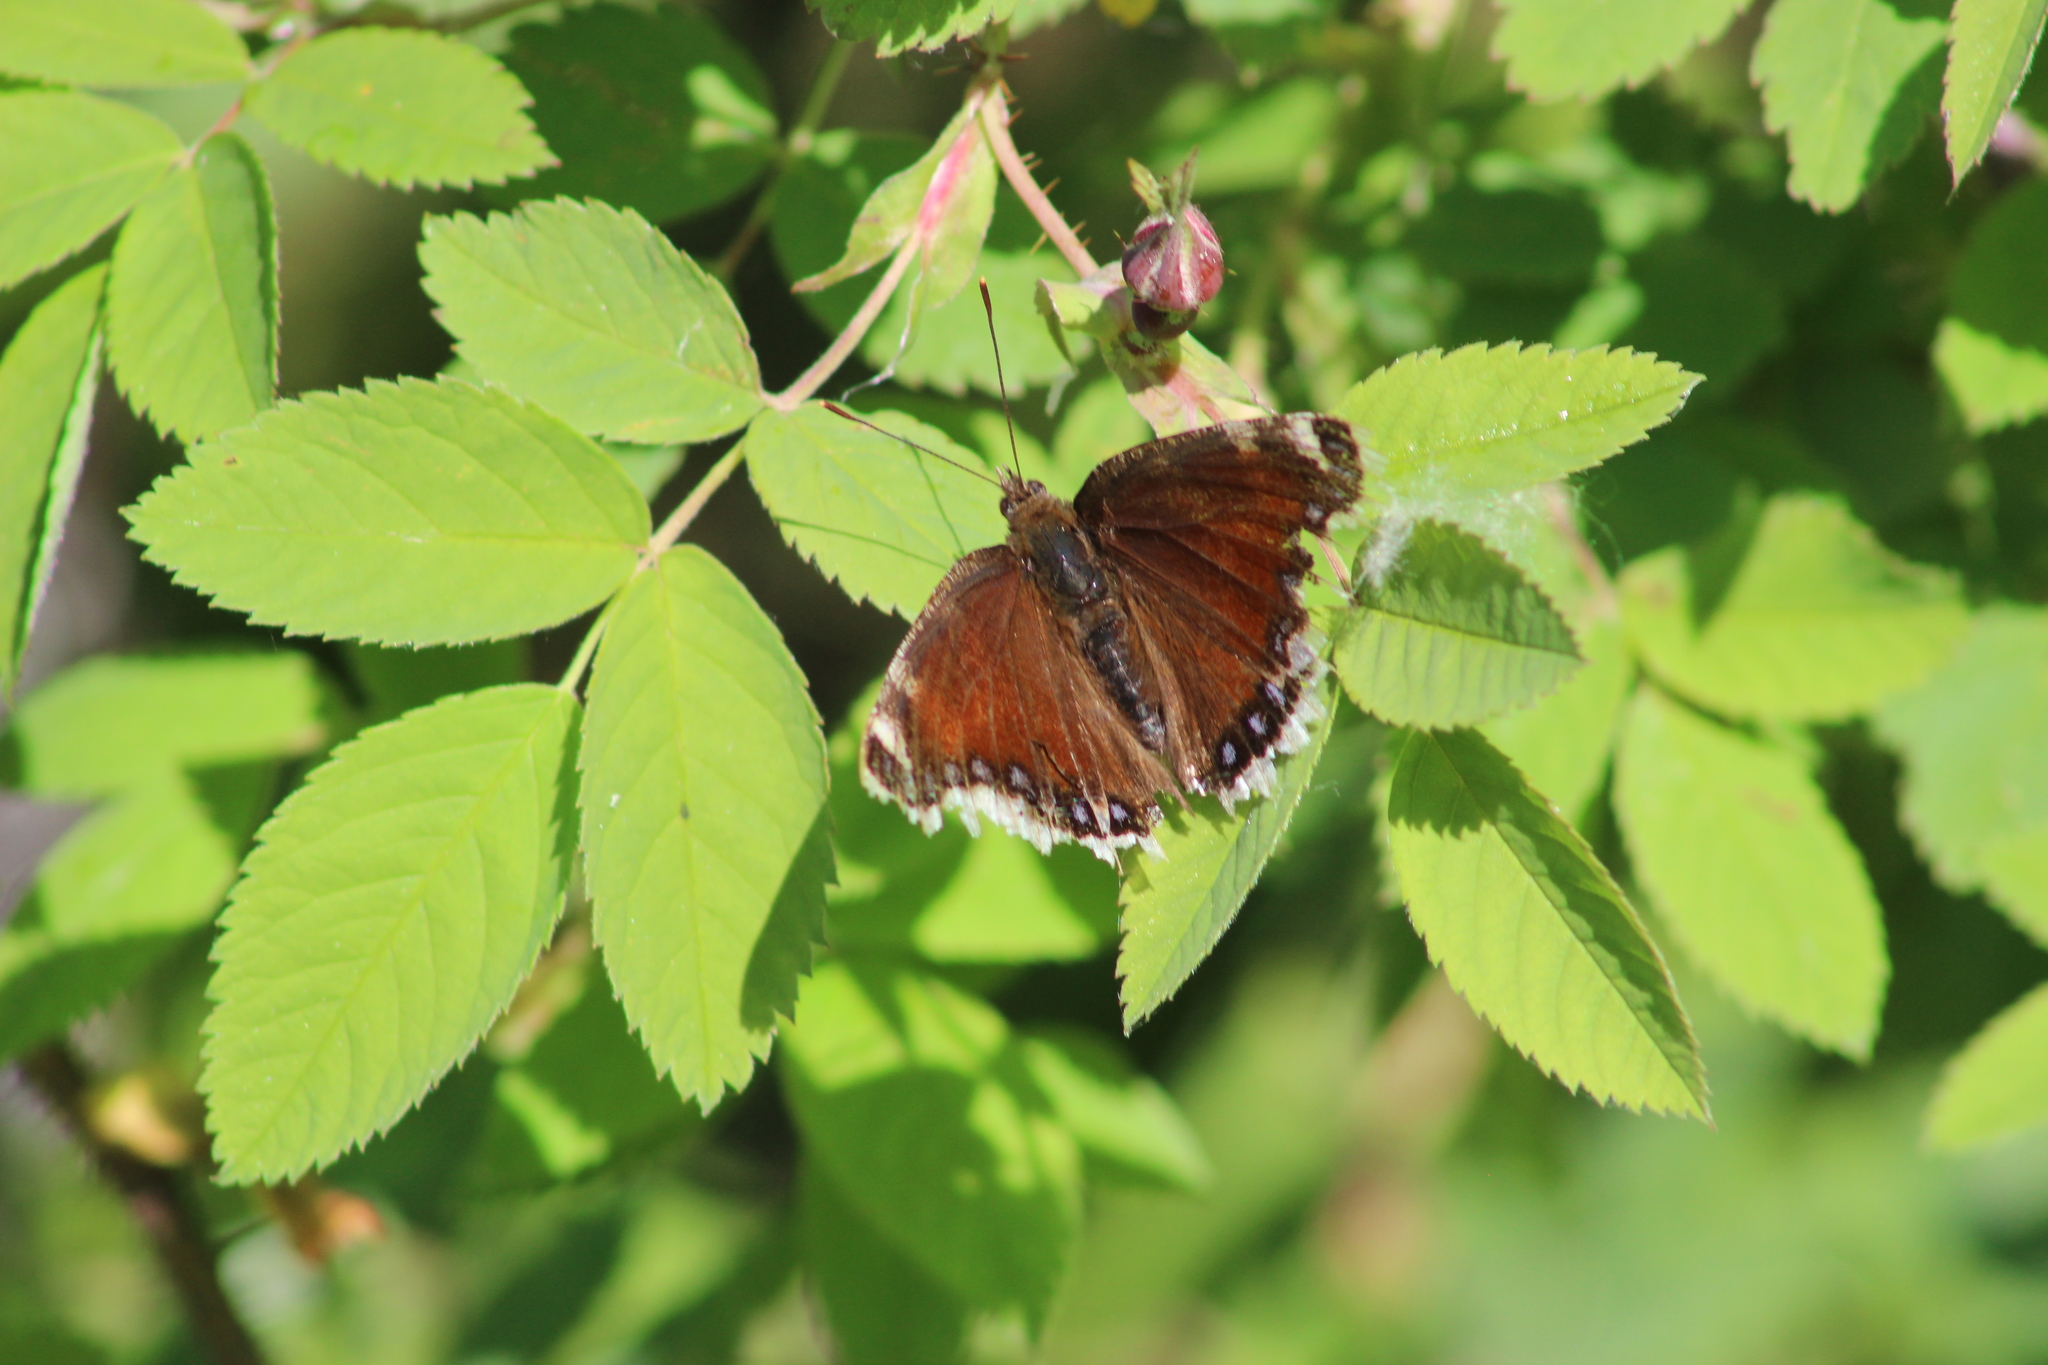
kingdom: Animalia
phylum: Arthropoda
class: Insecta
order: Lepidoptera
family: Nymphalidae
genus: Nymphalis
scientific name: Nymphalis antiopa
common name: Camberwell beauty
